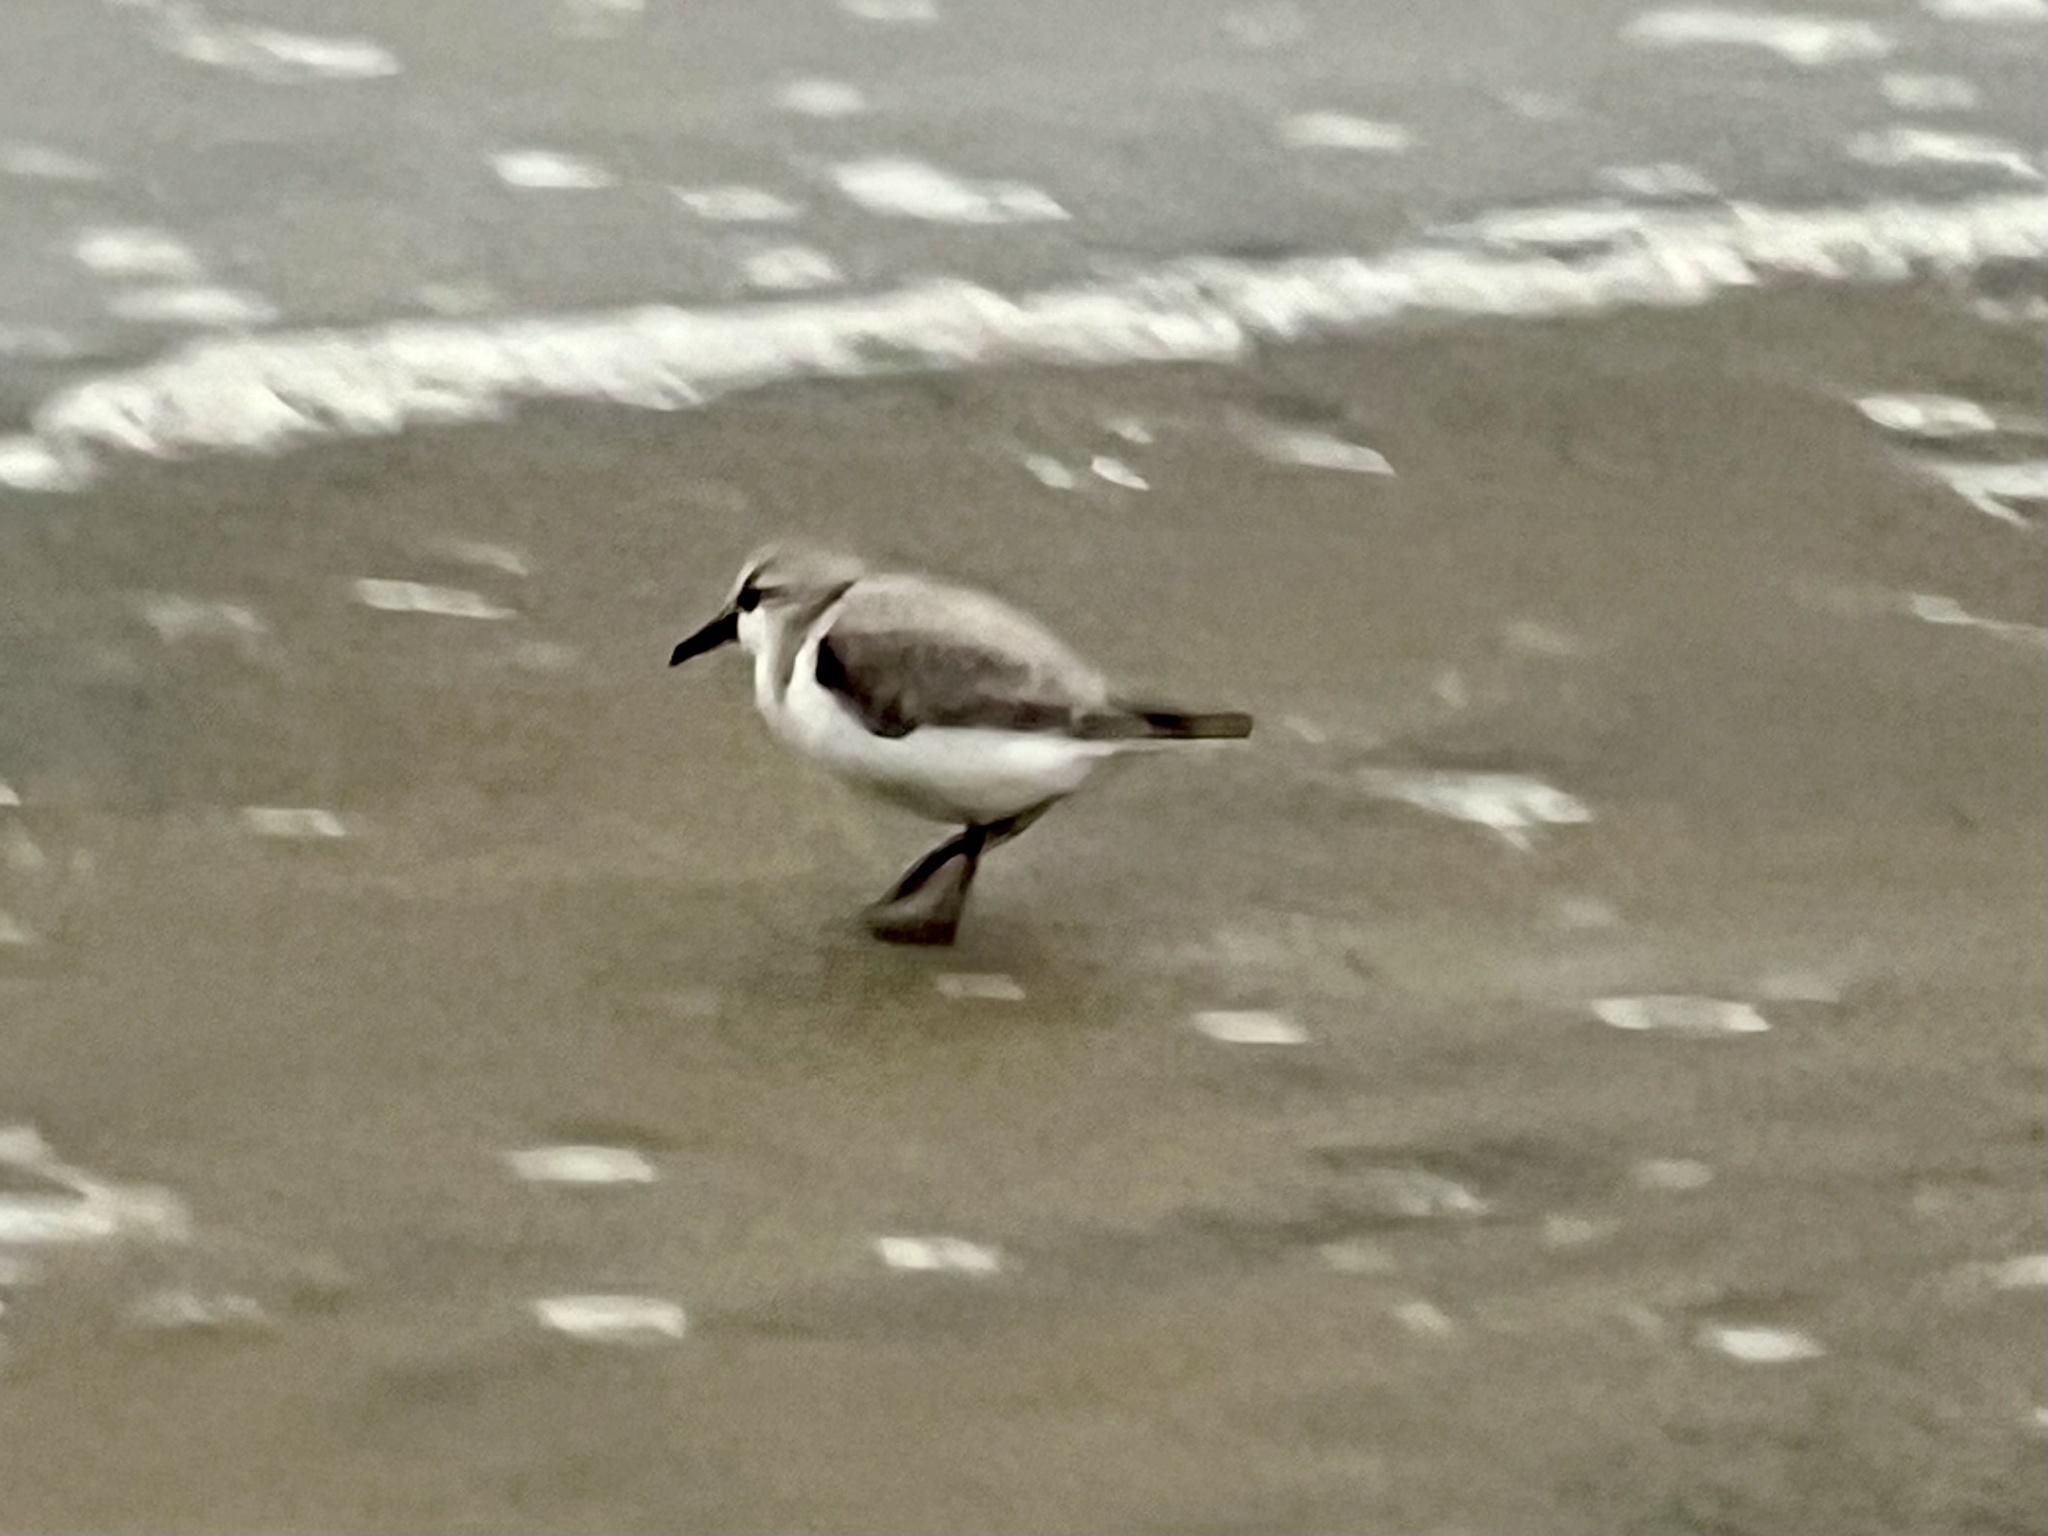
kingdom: Animalia
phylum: Chordata
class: Aves
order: Charadriiformes
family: Scolopacidae
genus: Calidris
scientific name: Calidris alba
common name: Sanderling
